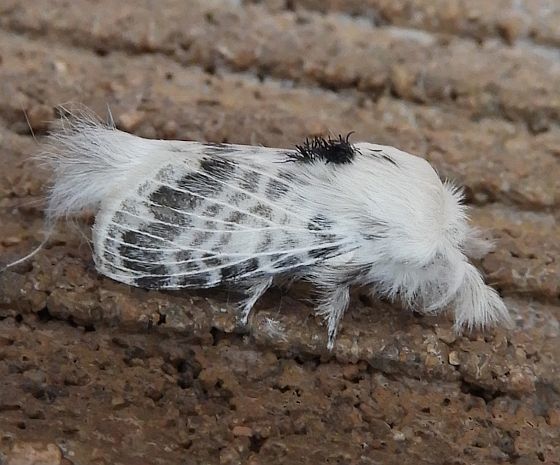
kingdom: Animalia
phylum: Arthropoda
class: Insecta
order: Lepidoptera
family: Lasiocampidae
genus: Apotolype
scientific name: Apotolype brevicrista
